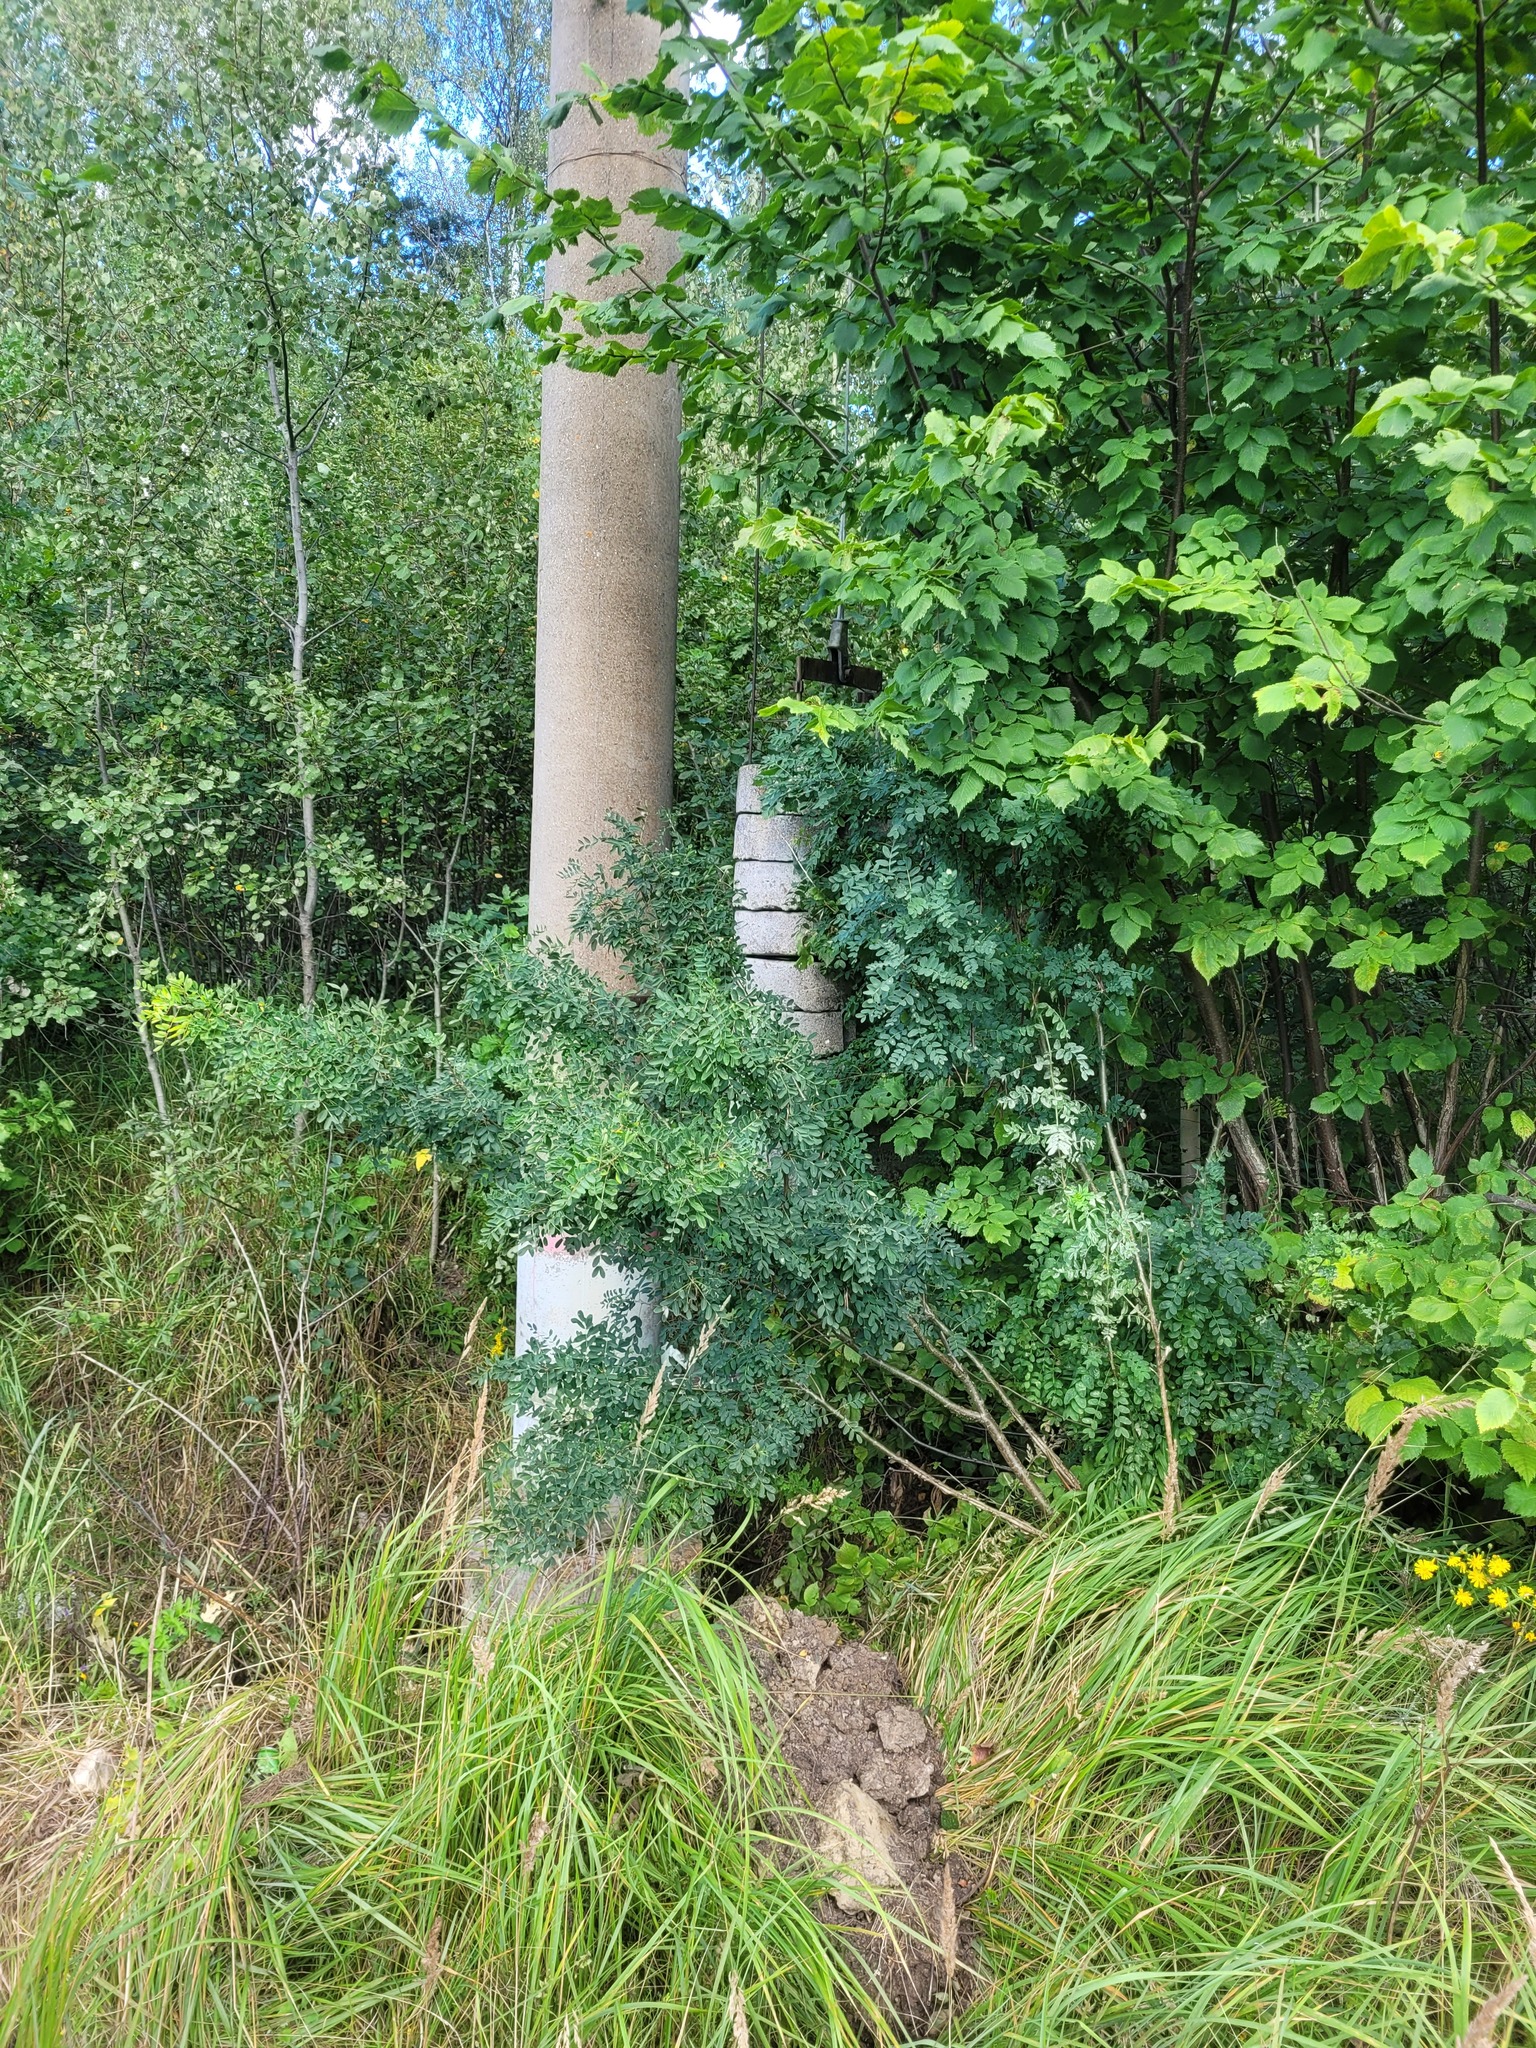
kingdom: Plantae
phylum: Tracheophyta
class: Magnoliopsida
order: Fabales
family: Fabaceae
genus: Caragana
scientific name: Caragana arborescens
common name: Siberian peashrub
